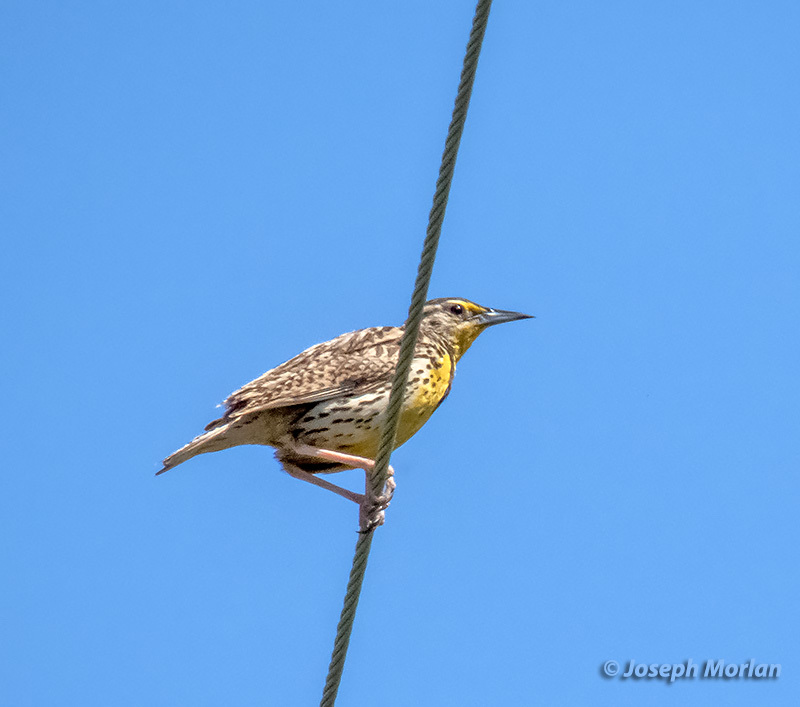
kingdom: Animalia
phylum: Chordata
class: Aves
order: Passeriformes
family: Icteridae
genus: Sturnella
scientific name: Sturnella neglecta
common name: Western meadowlark
